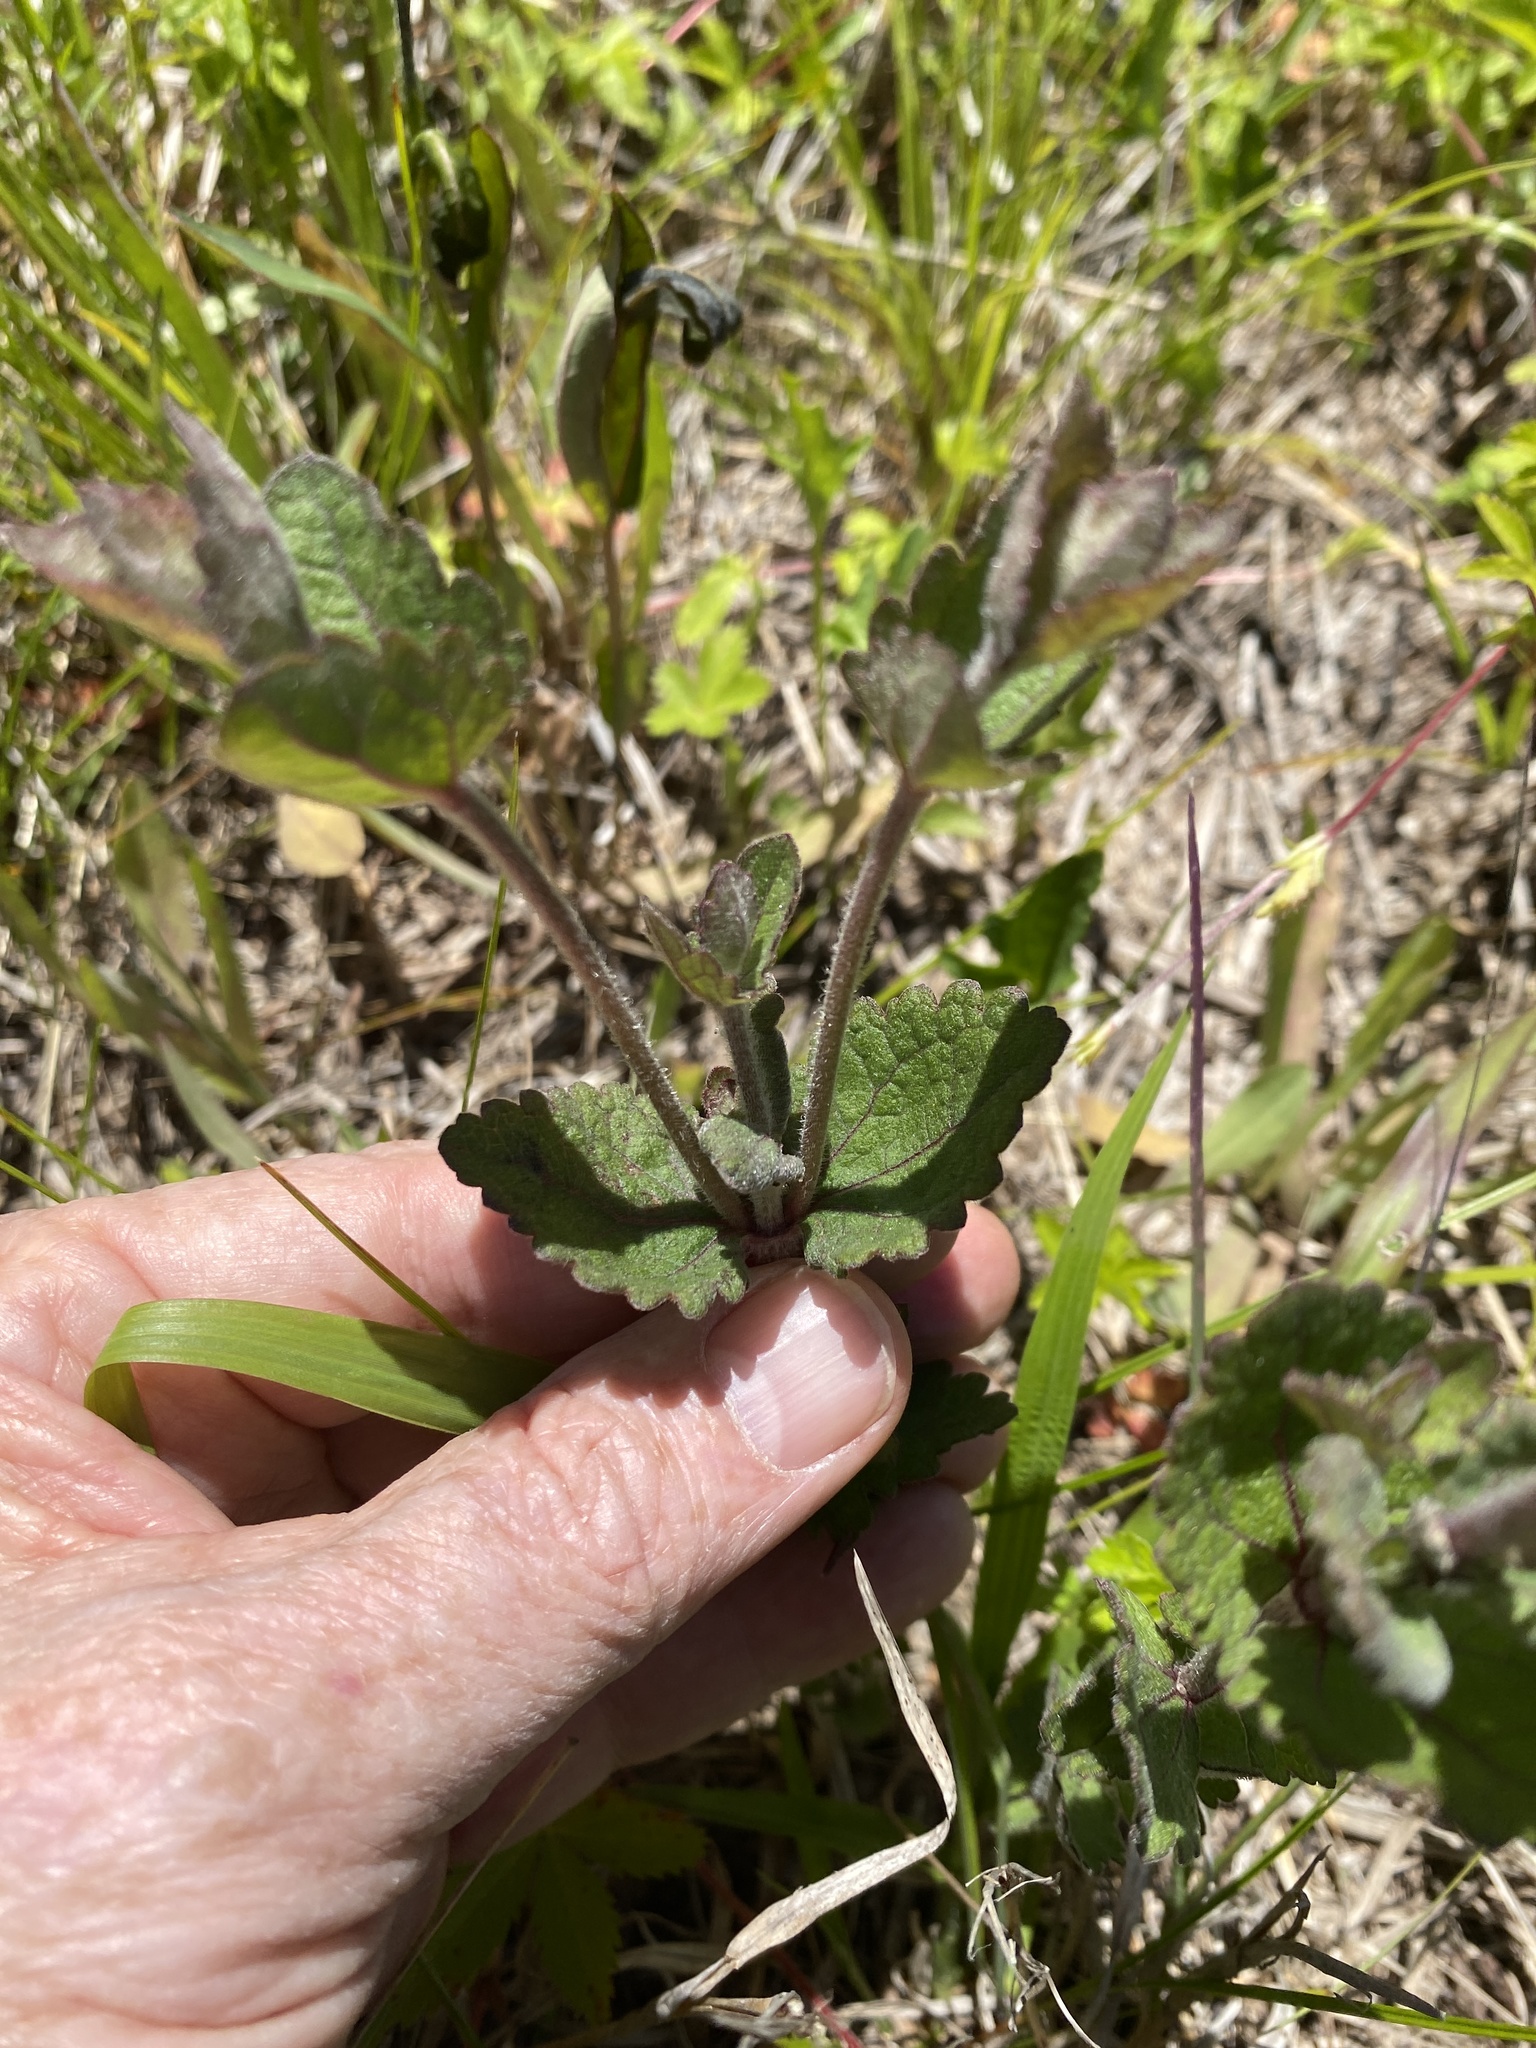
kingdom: Plantae
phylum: Tracheophyta
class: Magnoliopsida
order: Asterales
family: Asteraceae
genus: Eupatorium
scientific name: Eupatorium rotundifolium
